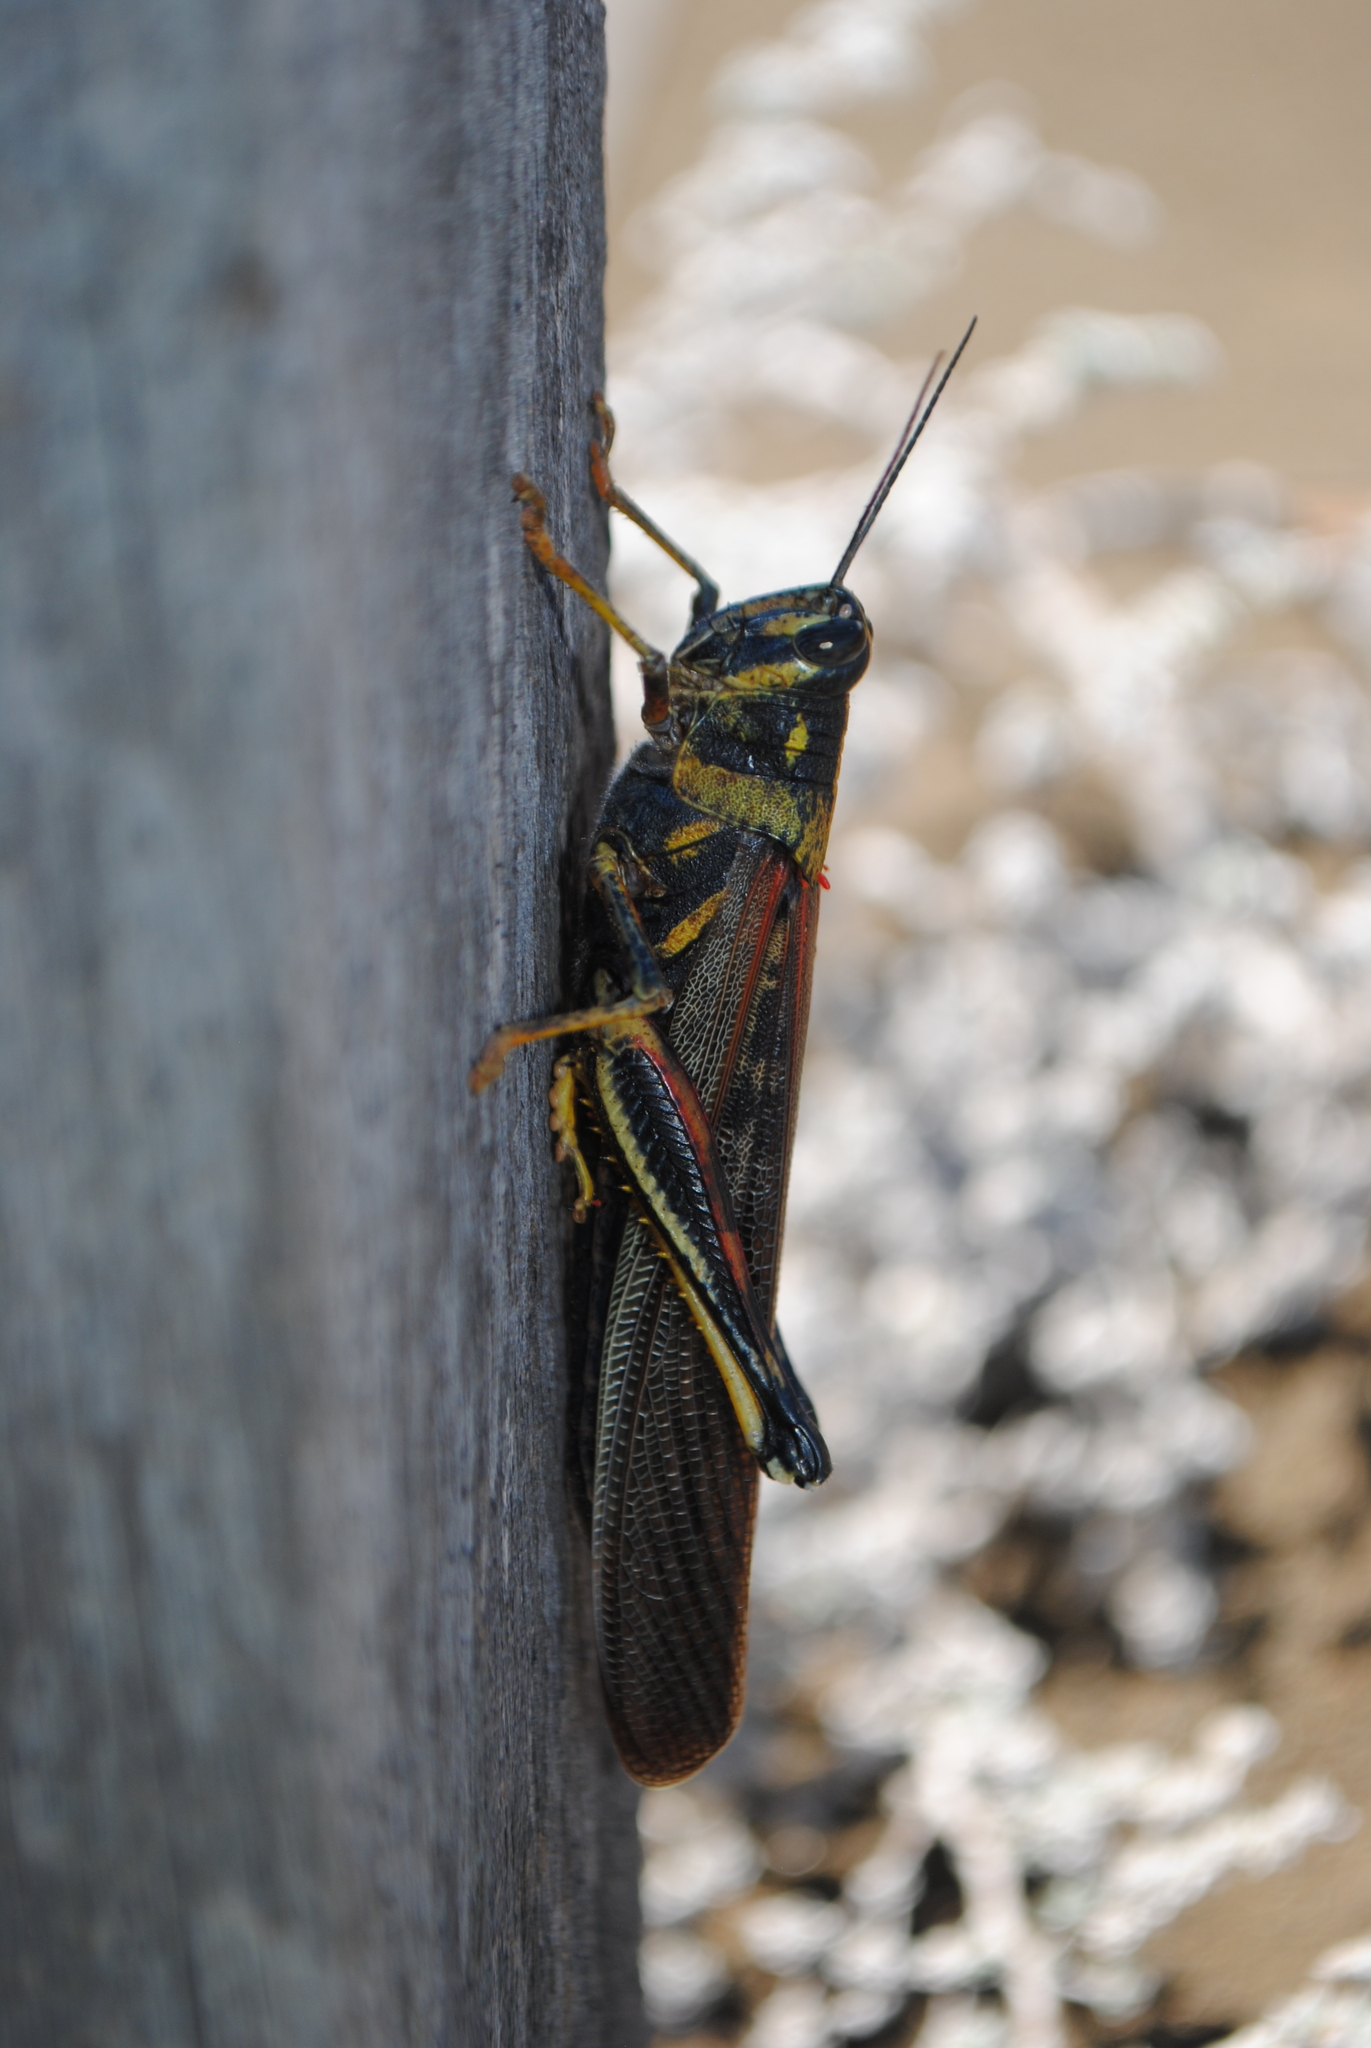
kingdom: Animalia
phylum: Arthropoda
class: Insecta
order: Orthoptera
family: Acrididae
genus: Schistocerca
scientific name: Schistocerca melanocera
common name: Large painted locust
